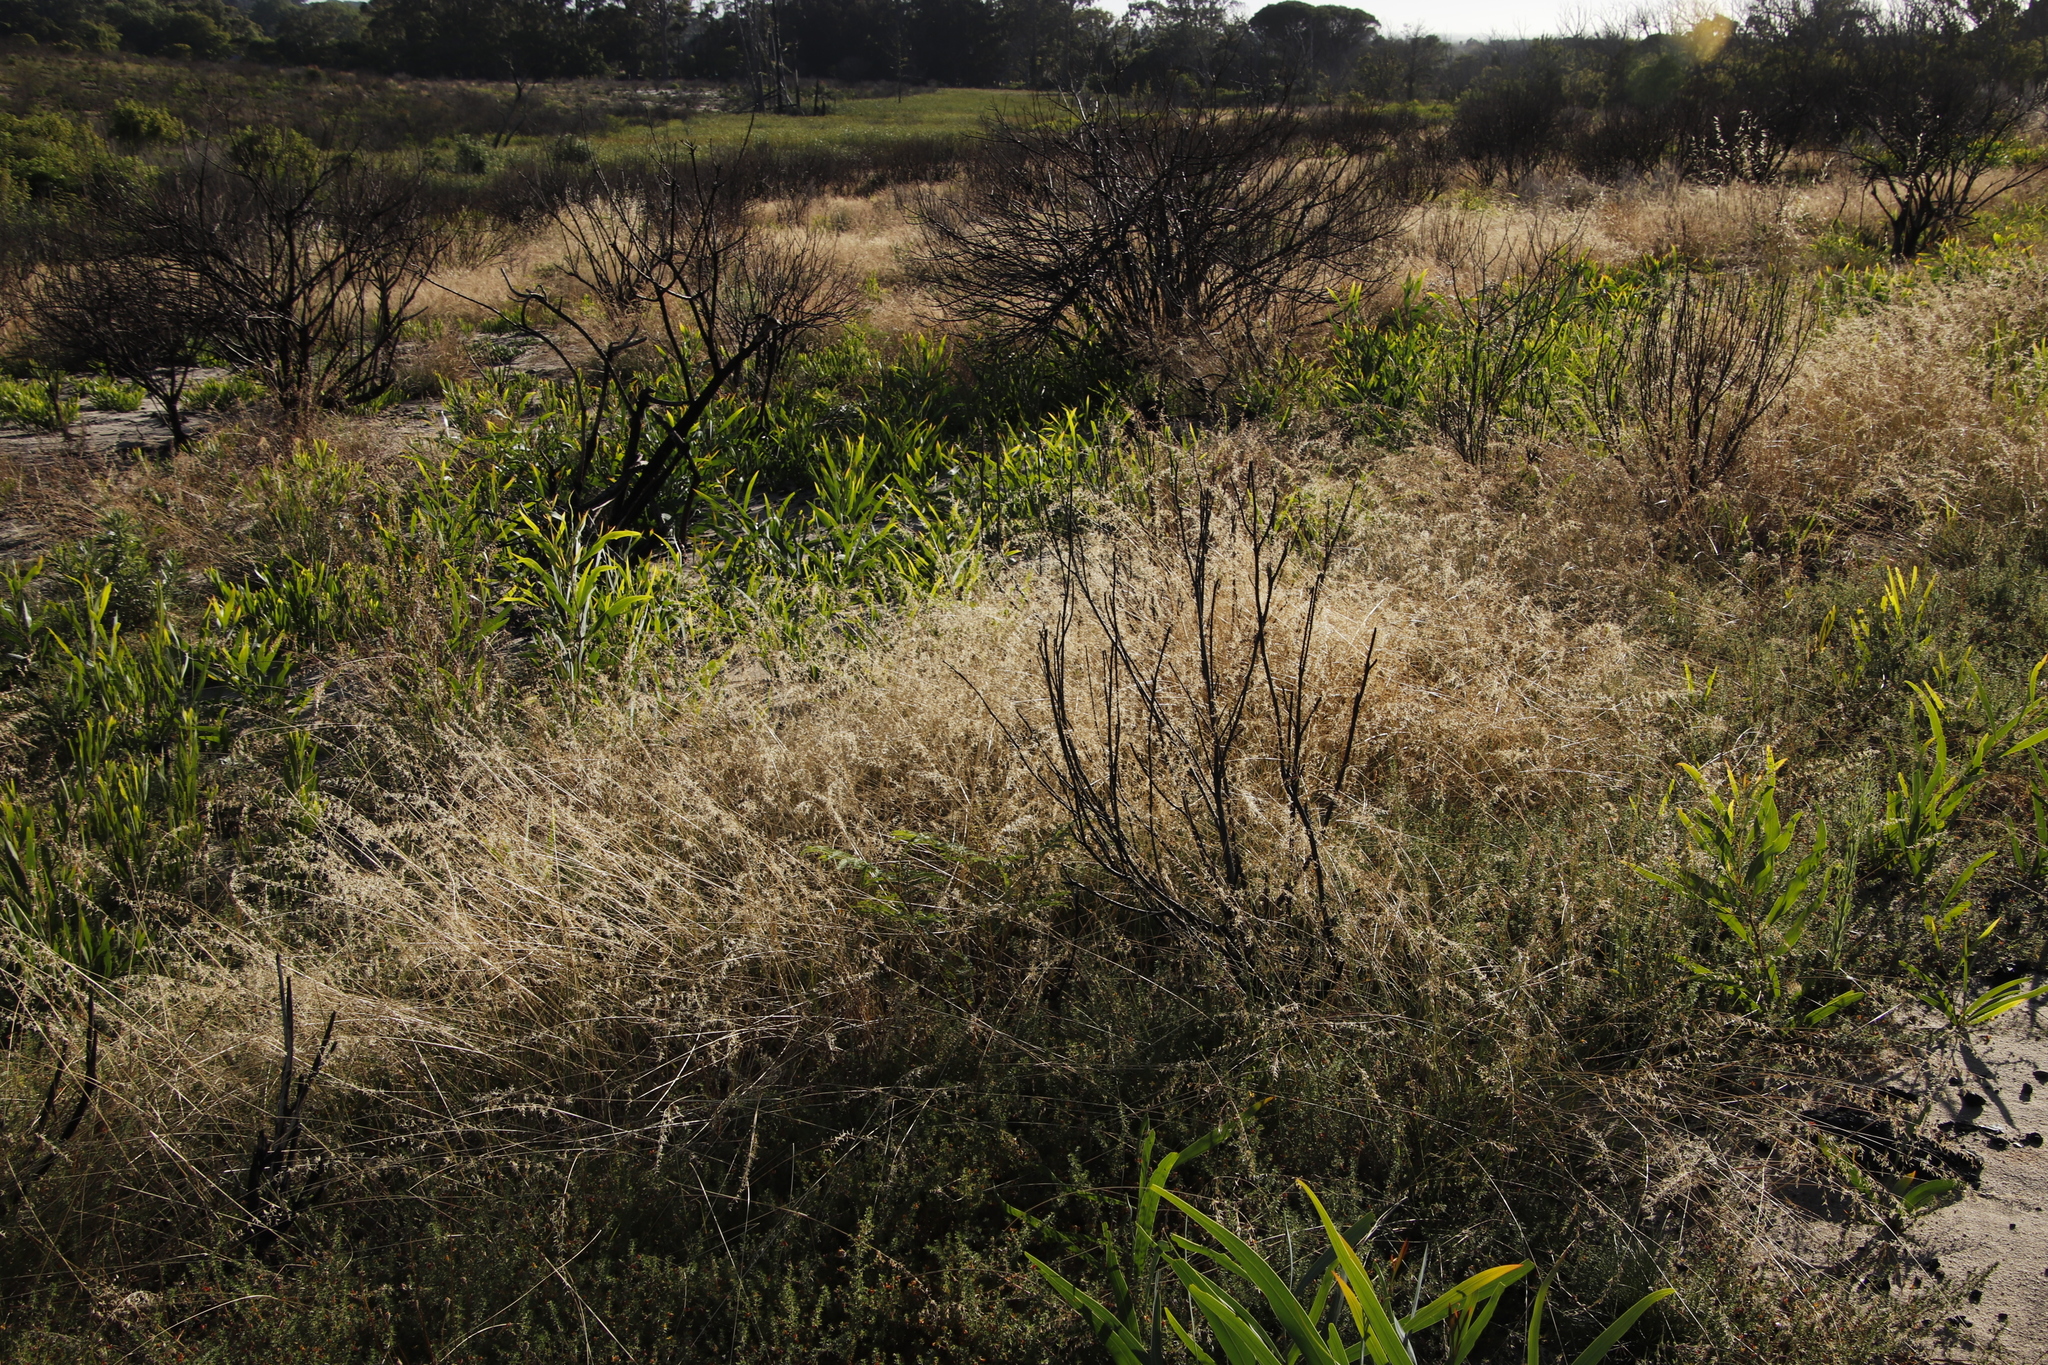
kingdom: Plantae
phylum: Tracheophyta
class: Magnoliopsida
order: Fabales
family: Fabaceae
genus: Acacia
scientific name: Acacia saligna
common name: Orange wattle
